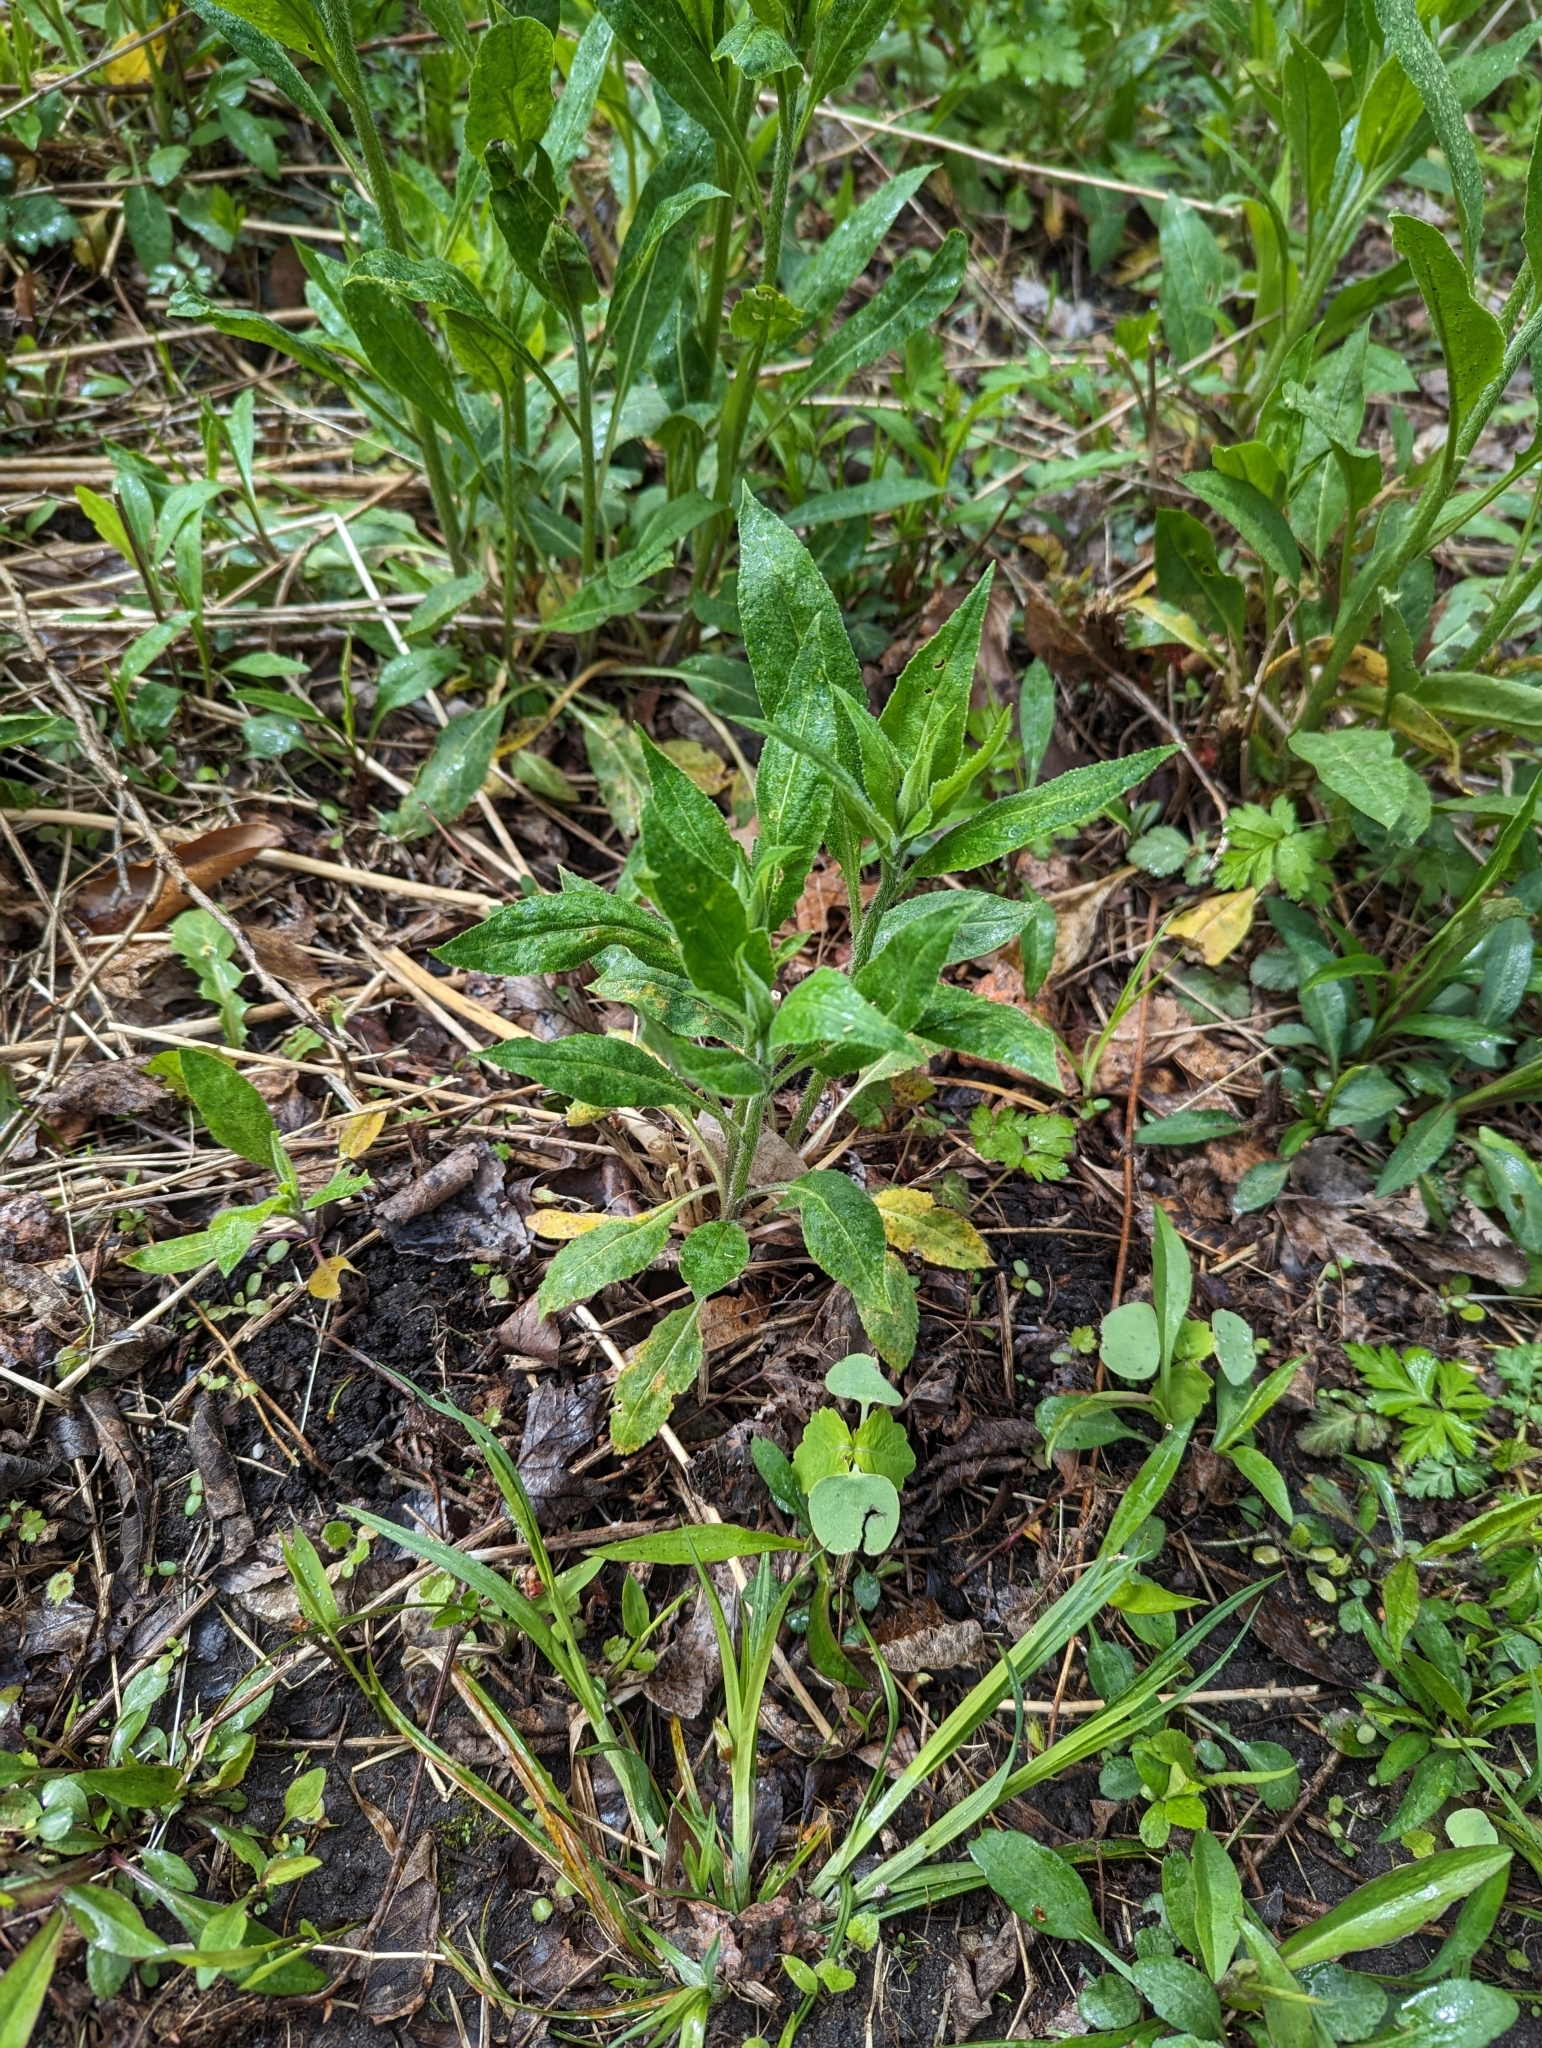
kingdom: Plantae
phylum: Tracheophyta
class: Magnoliopsida
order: Brassicales
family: Brassicaceae
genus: Hesperis
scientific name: Hesperis matronalis
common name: Dame's-violet
